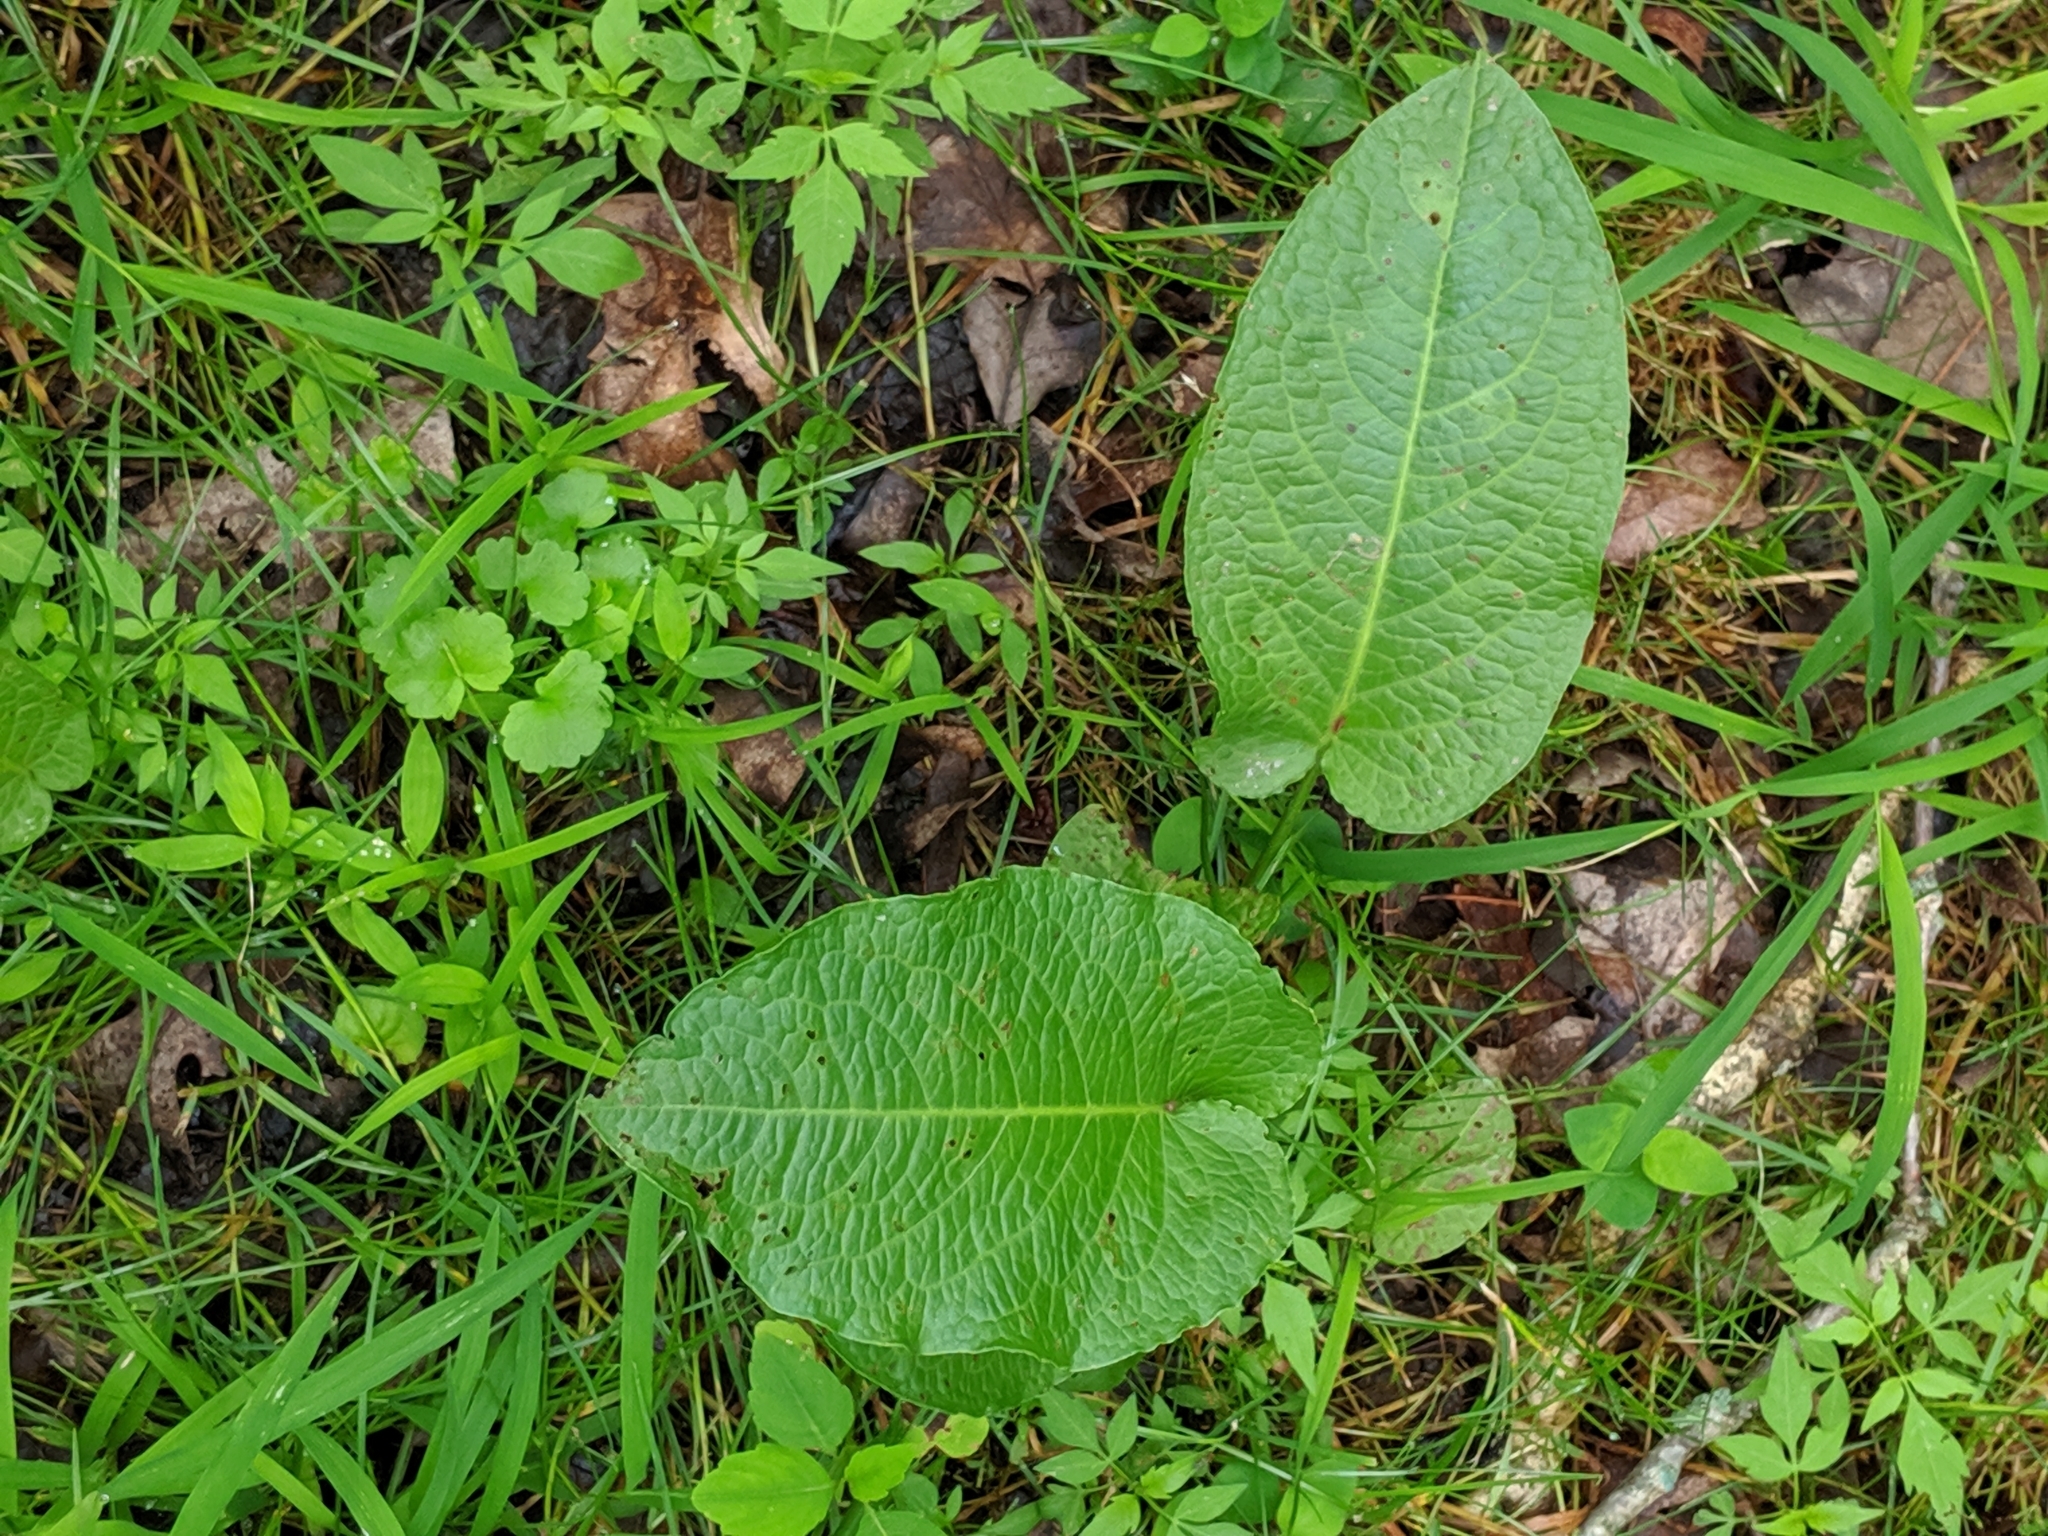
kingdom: Plantae
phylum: Tracheophyta
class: Magnoliopsida
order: Caryophyllales
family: Polygonaceae
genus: Rumex
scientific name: Rumex obtusifolius
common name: Bitter dock
